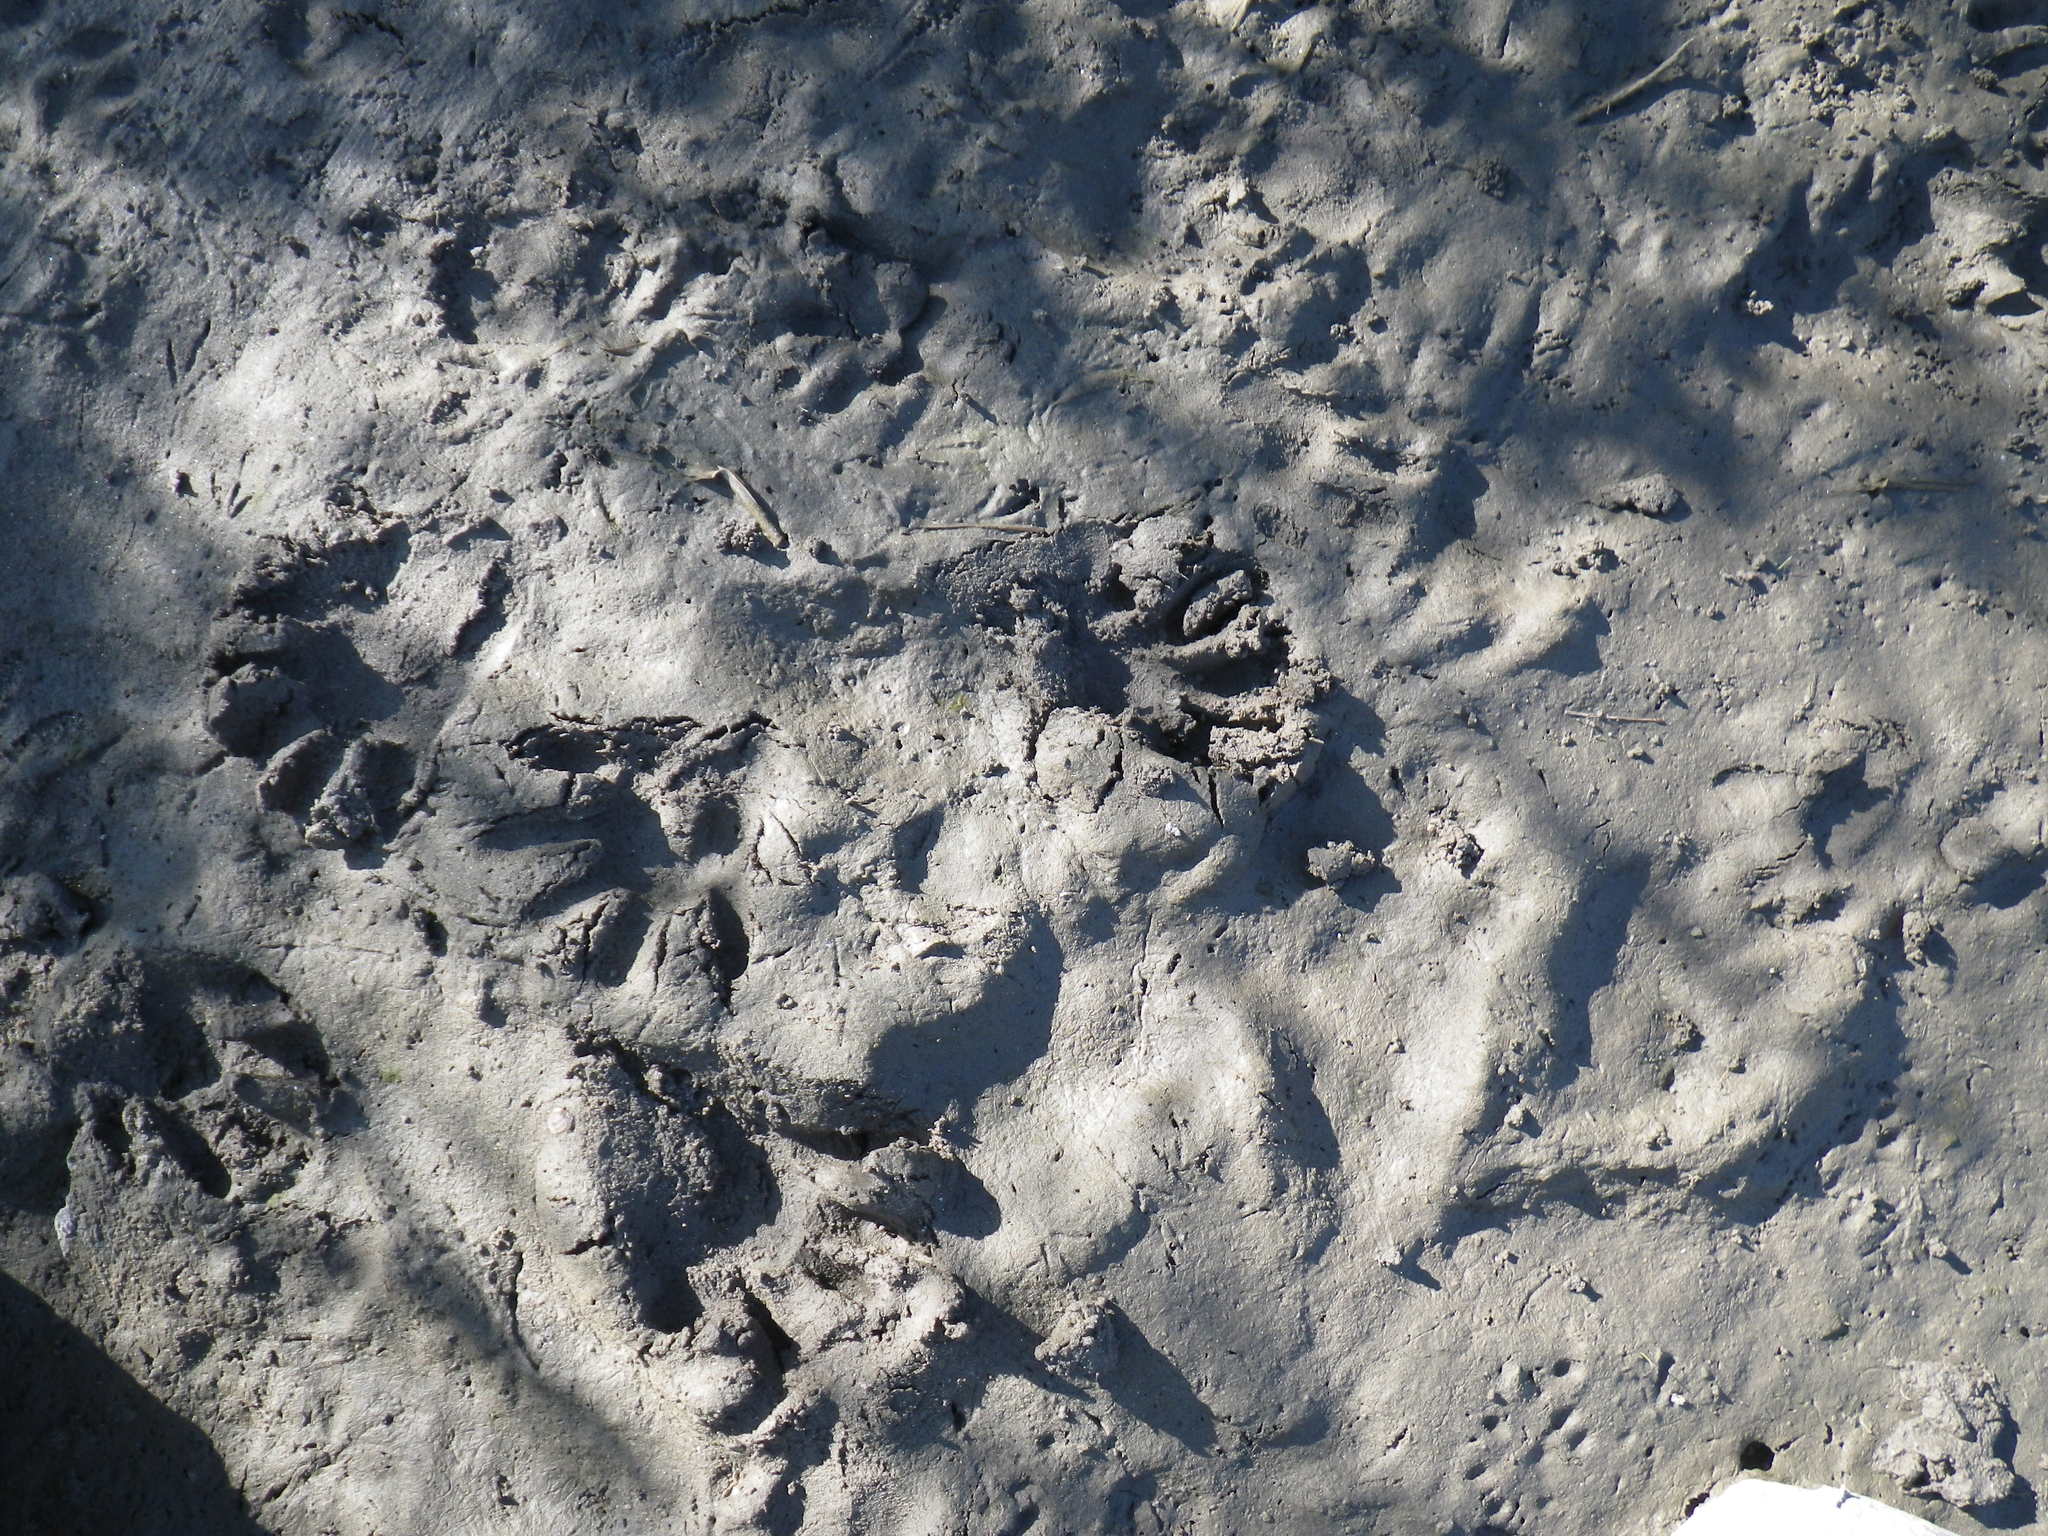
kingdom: Animalia
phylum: Chordata
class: Mammalia
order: Carnivora
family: Procyonidae
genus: Procyon
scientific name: Procyon lotor
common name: Raccoon
